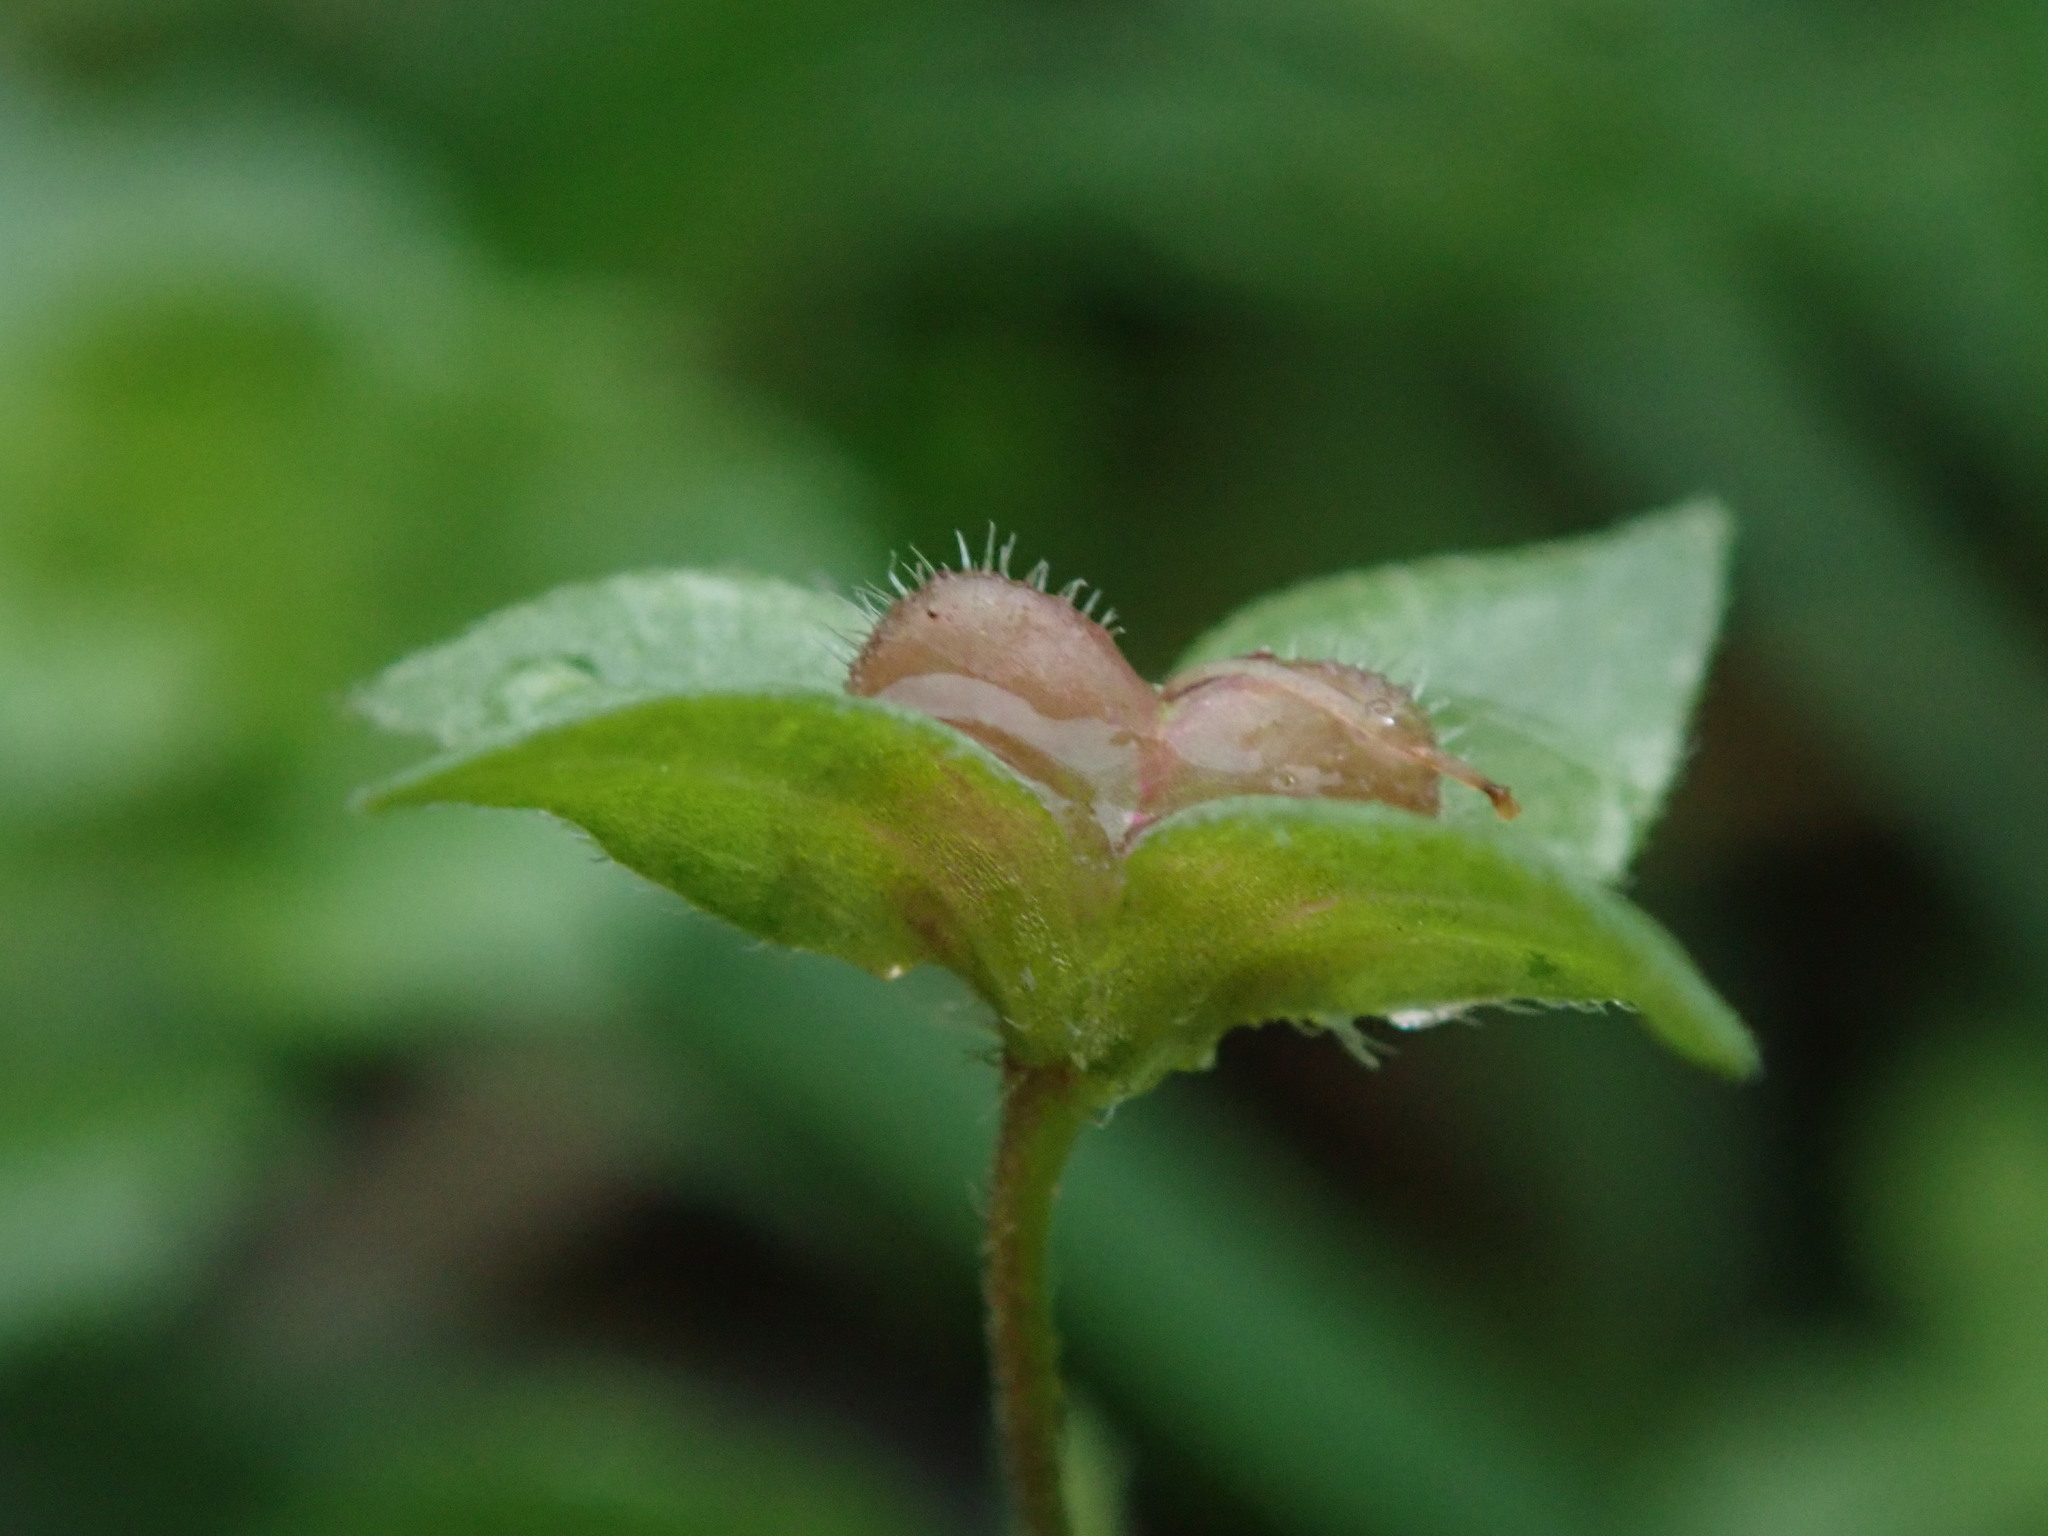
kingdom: Plantae
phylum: Tracheophyta
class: Magnoliopsida
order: Lamiales
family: Plantaginaceae
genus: Veronica
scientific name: Veronica persica
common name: Common field-speedwell
